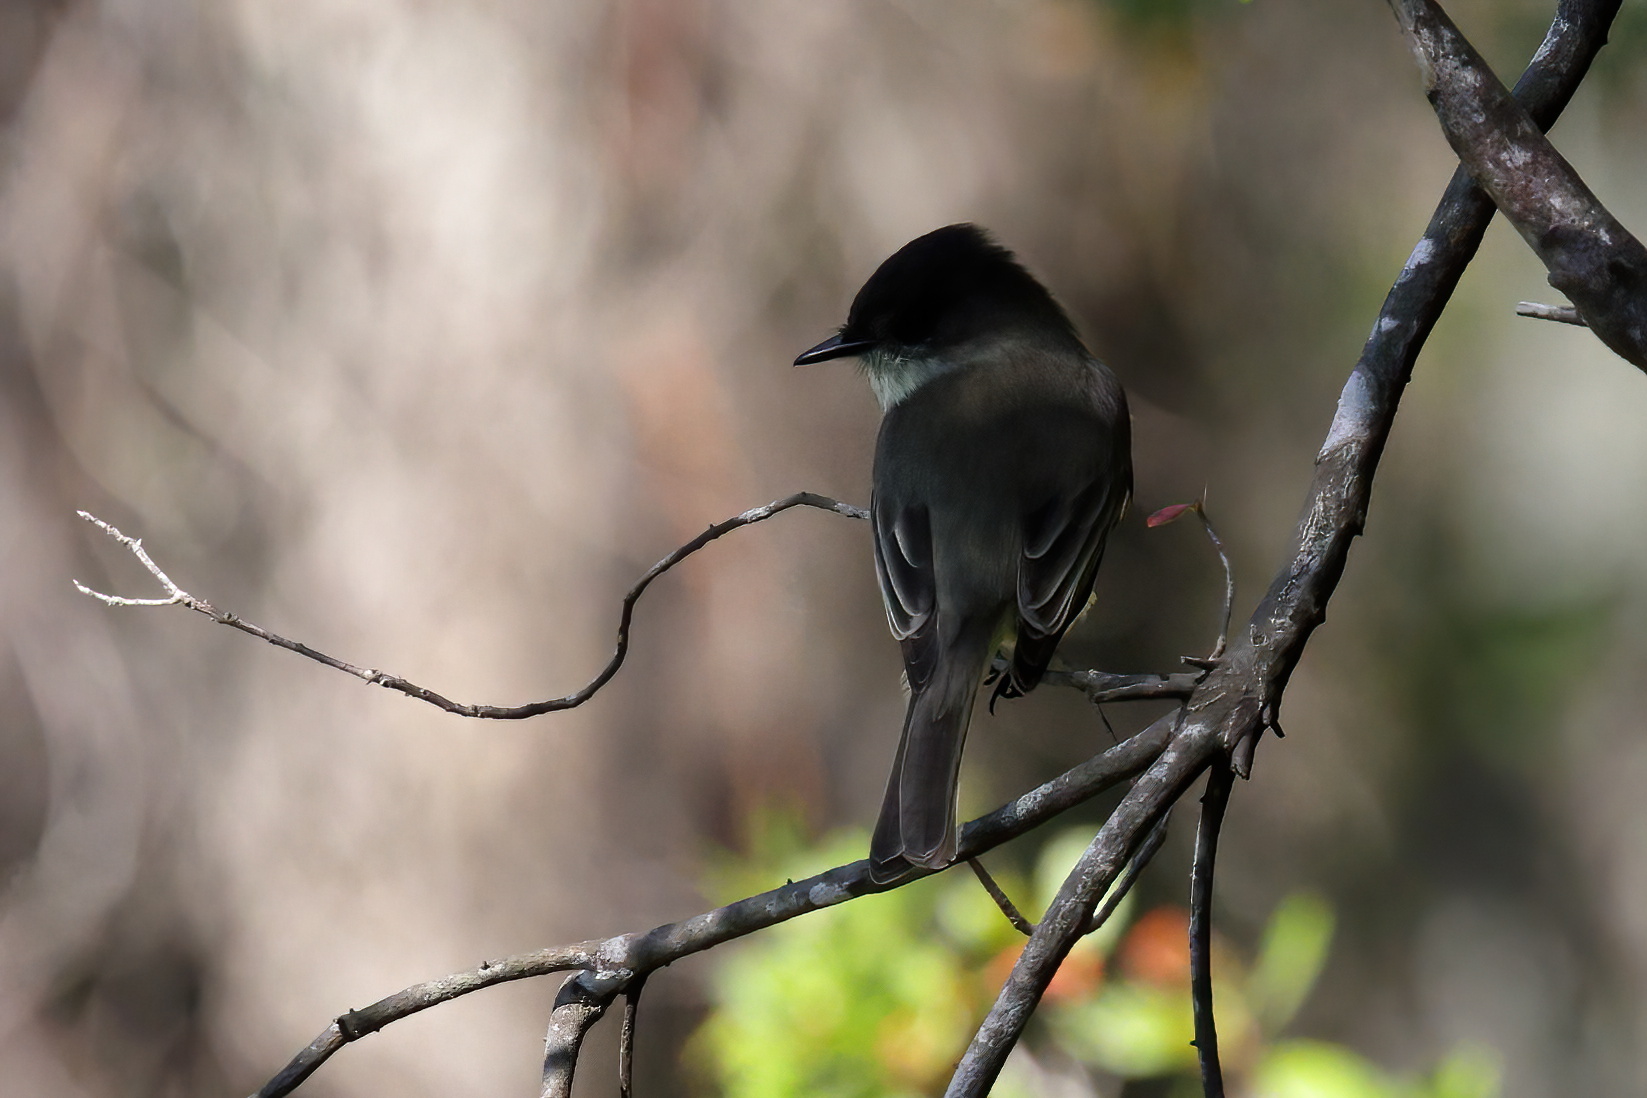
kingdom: Animalia
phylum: Chordata
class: Aves
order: Passeriformes
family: Tyrannidae
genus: Sayornis
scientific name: Sayornis phoebe
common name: Eastern phoebe
